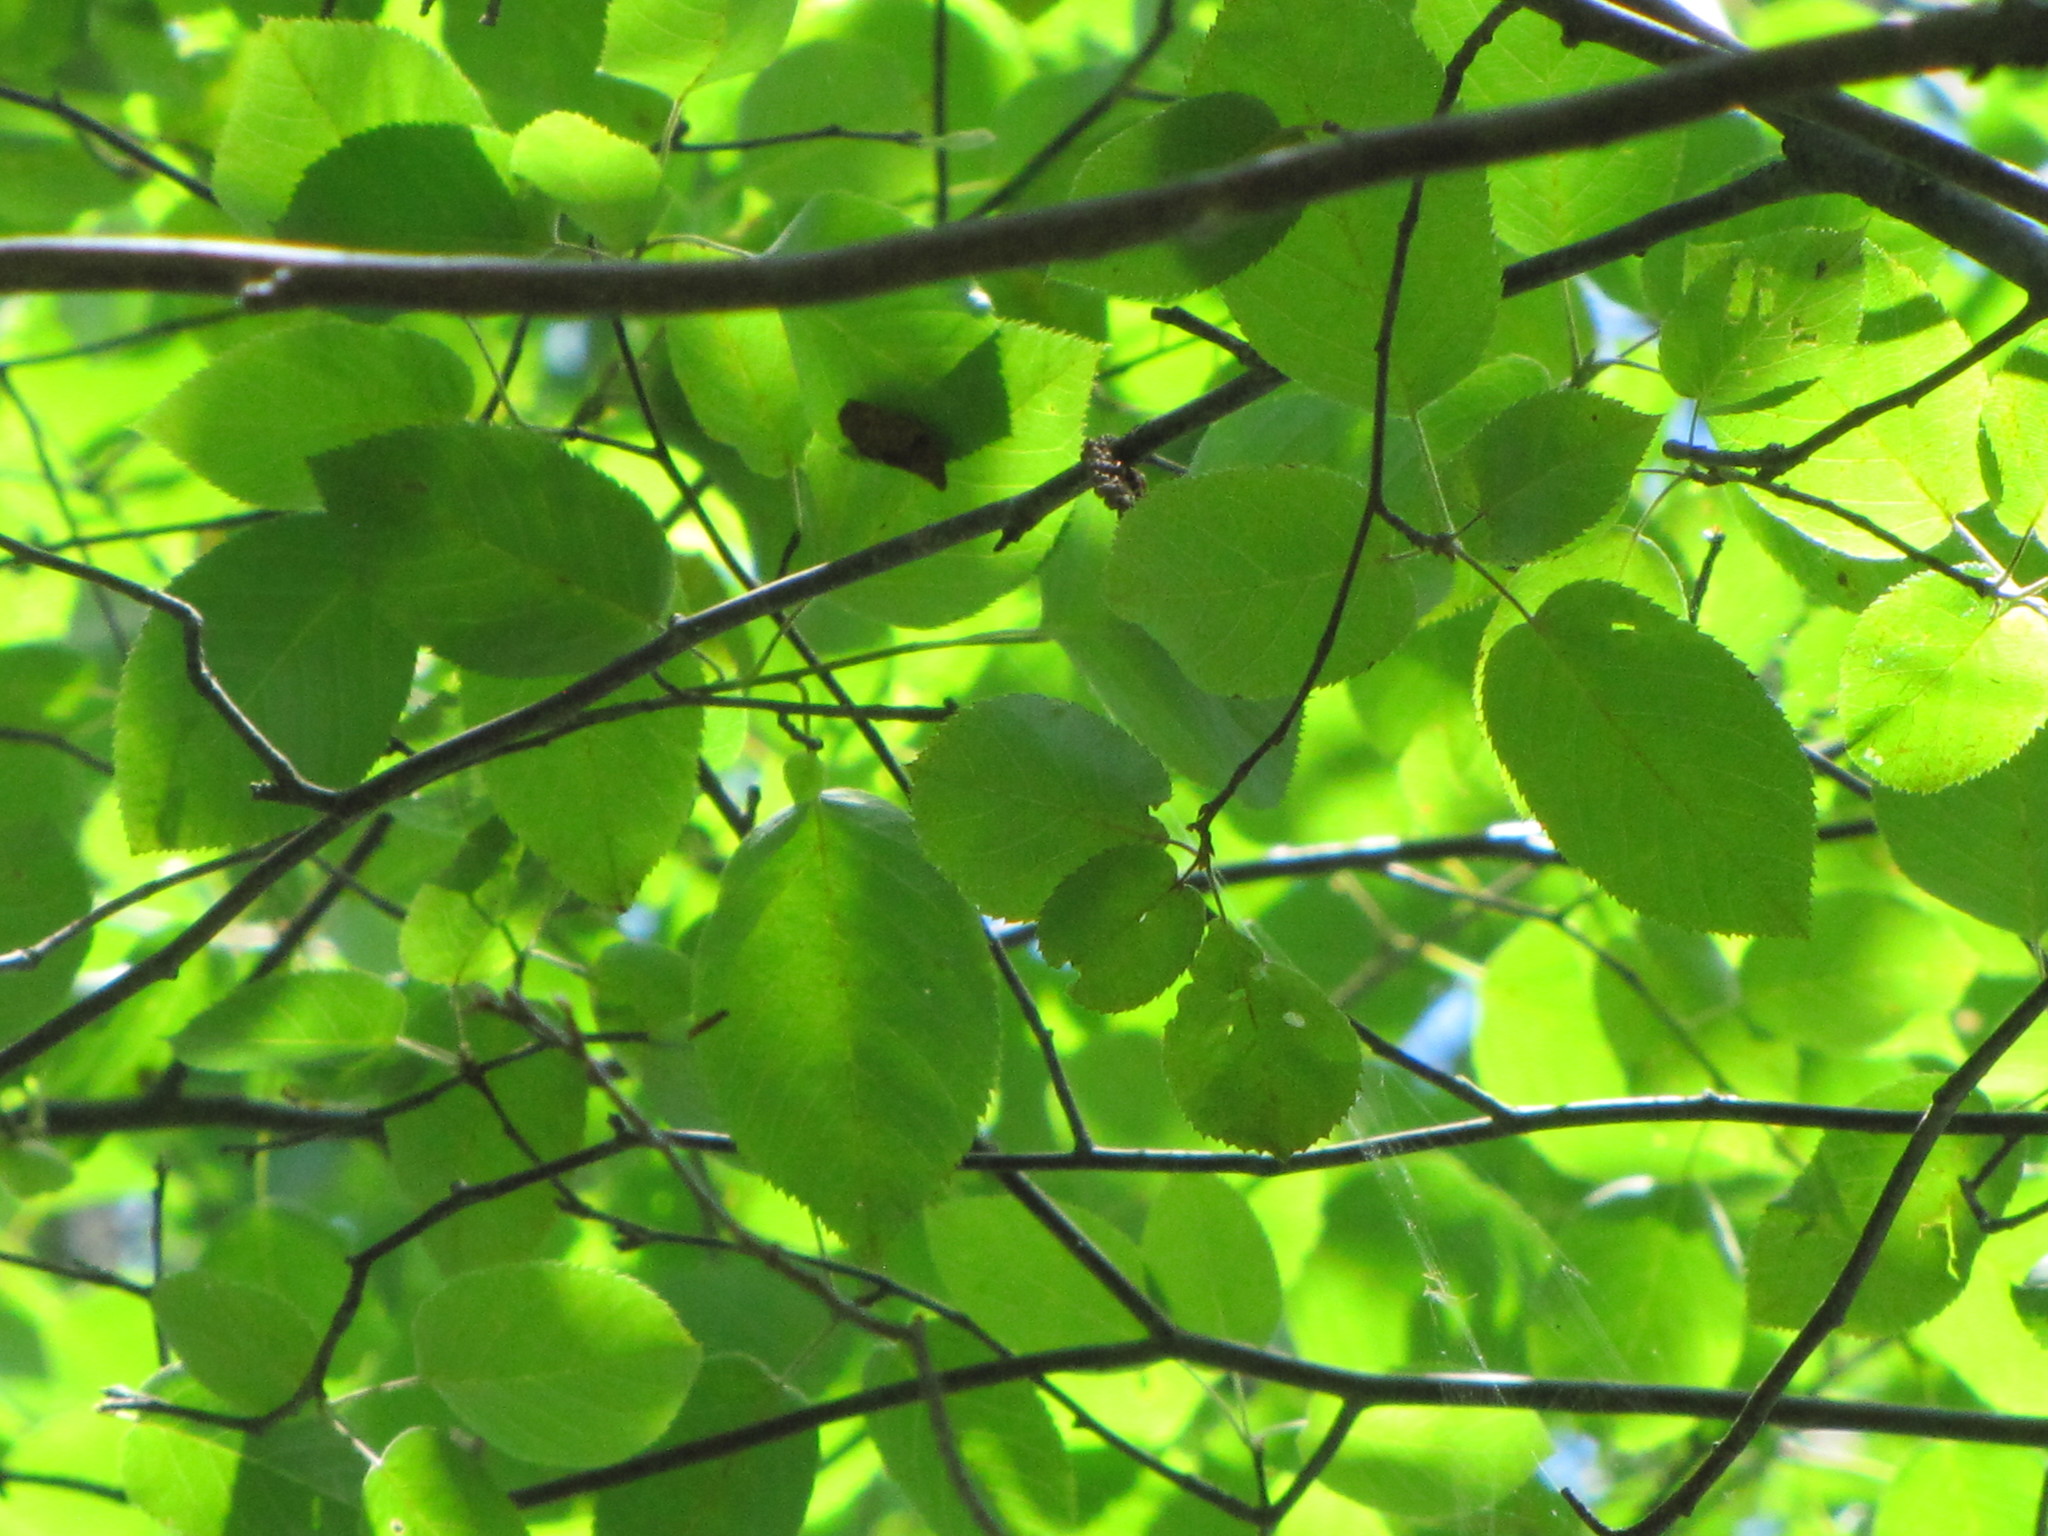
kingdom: Plantae
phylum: Tracheophyta
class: Magnoliopsida
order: Fagales
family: Betulaceae
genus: Betula
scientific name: Betula papyrifera
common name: Paper birch
